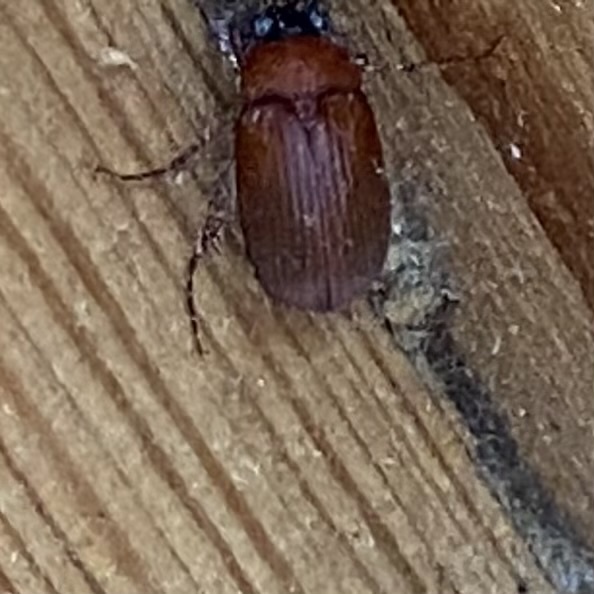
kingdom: Animalia
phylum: Arthropoda
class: Insecta
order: Coleoptera
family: Scarabaeidae
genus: Serica
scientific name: Serica brunnea
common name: Brown chafer
